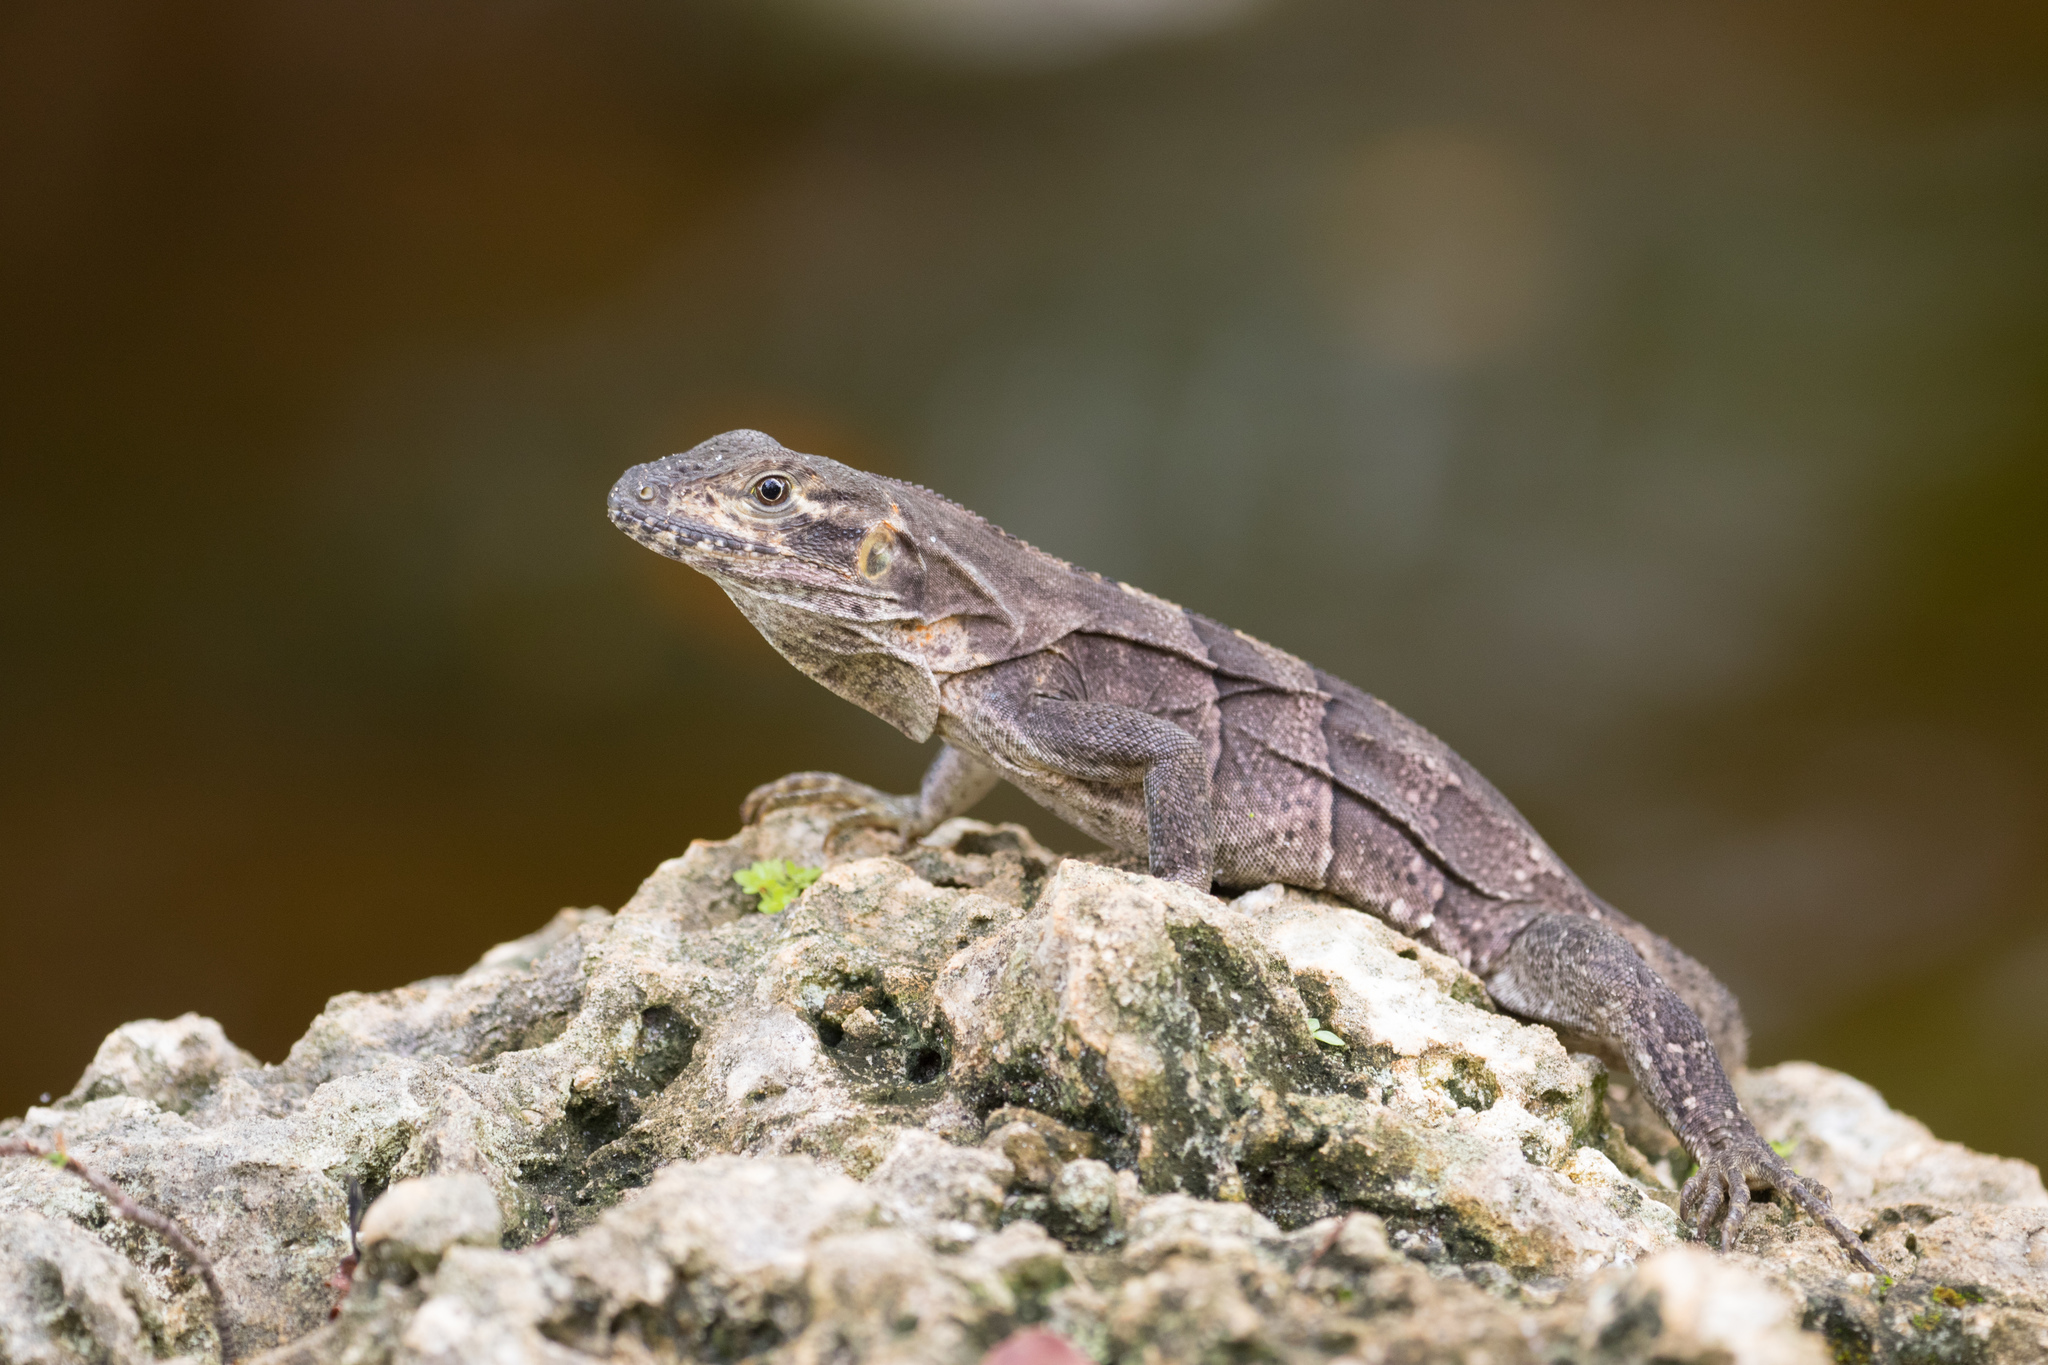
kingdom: Animalia
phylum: Chordata
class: Squamata
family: Iguanidae
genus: Ctenosaura
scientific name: Ctenosaura similis
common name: Black spiny-tailed iguana
